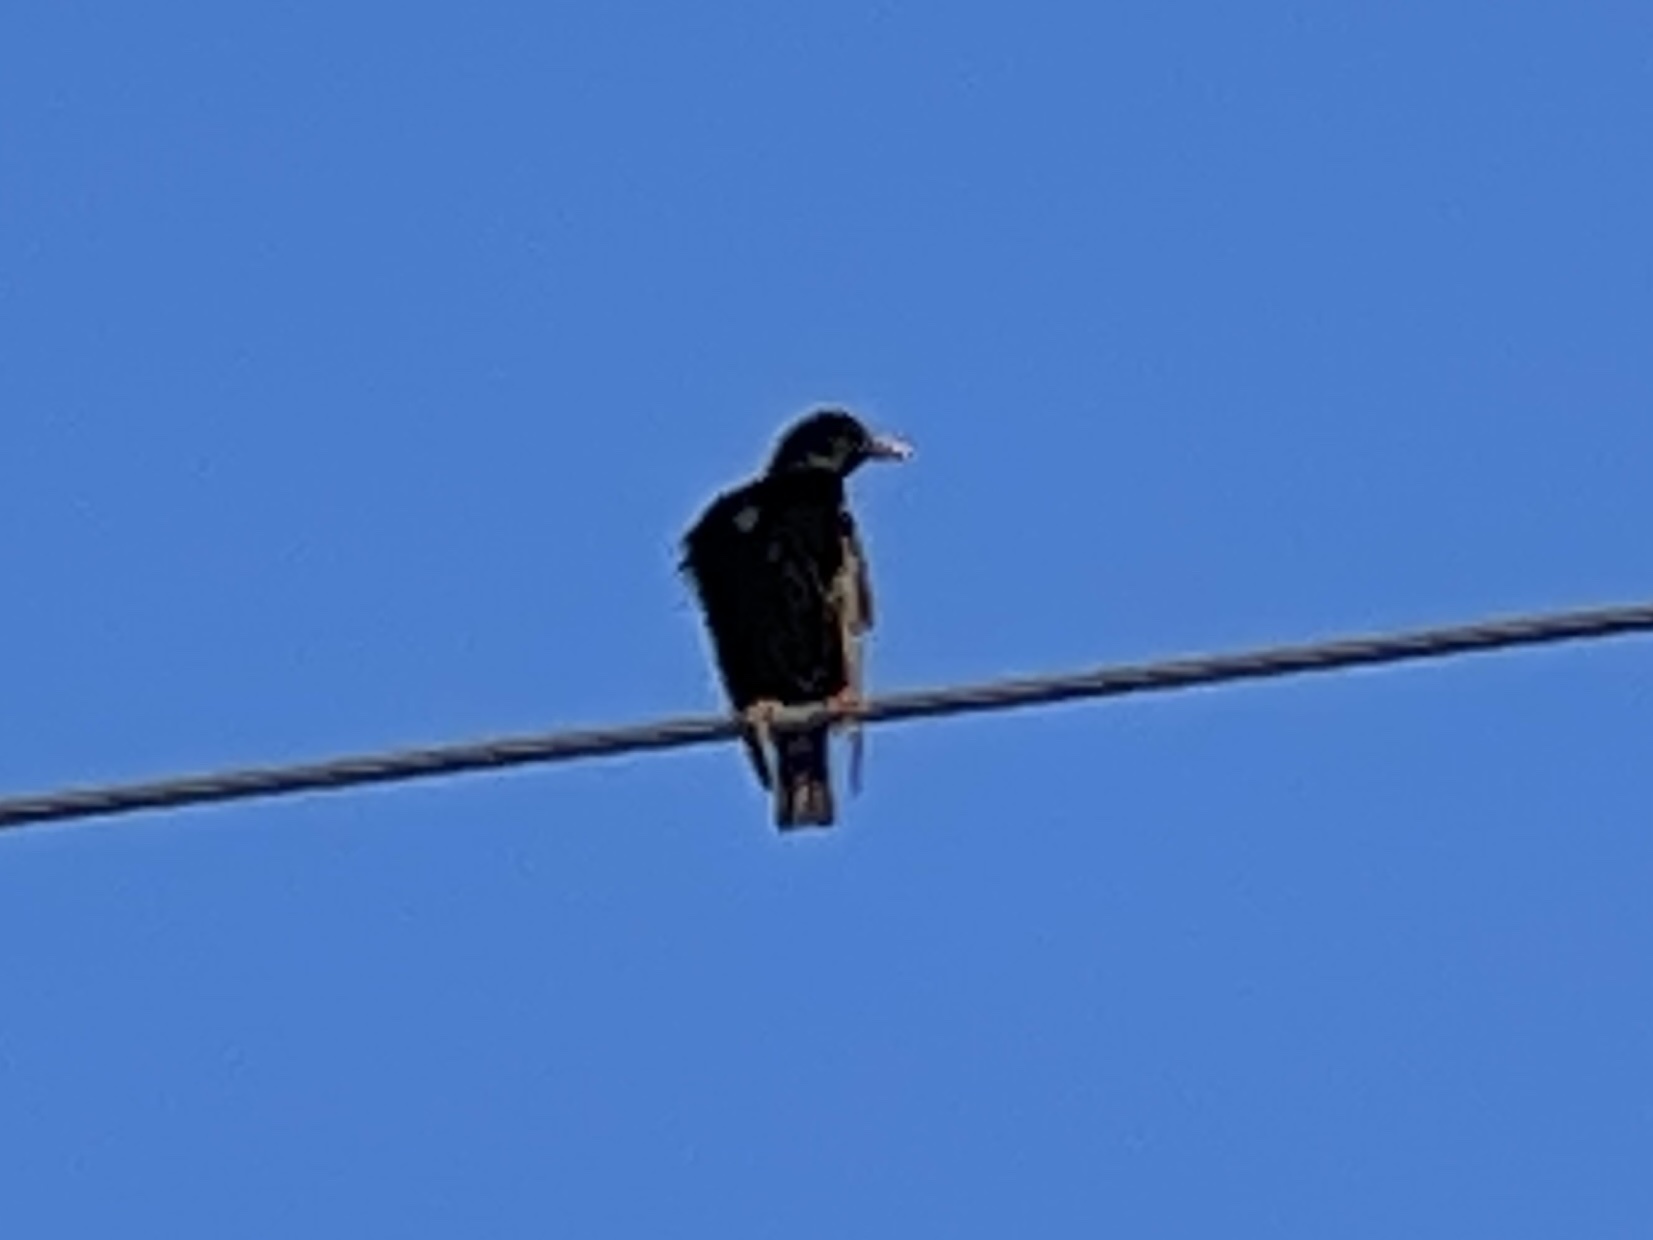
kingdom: Animalia
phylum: Chordata
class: Aves
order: Passeriformes
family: Sturnidae
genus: Sturnus
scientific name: Sturnus vulgaris
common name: Common starling
